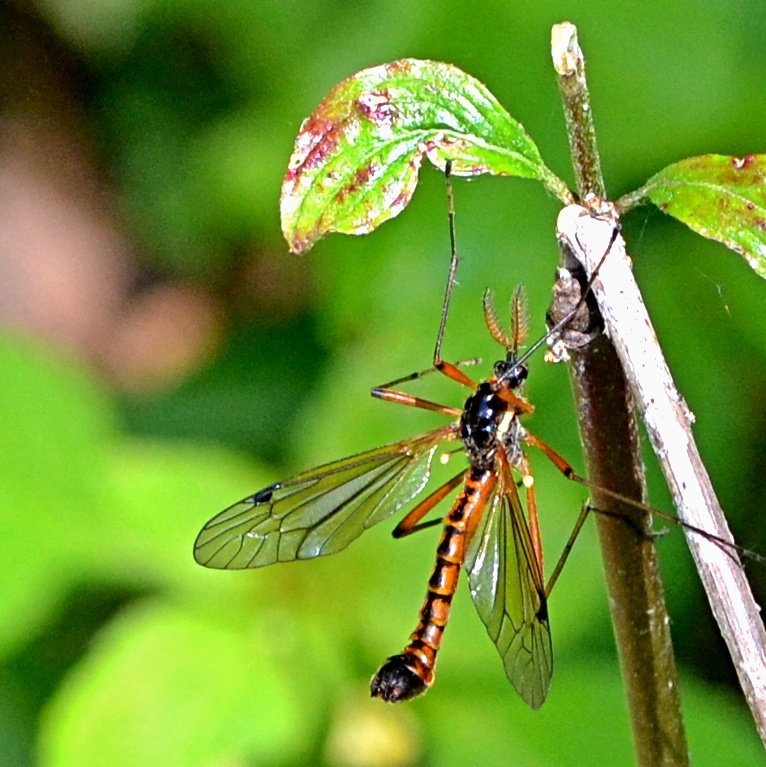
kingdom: Animalia
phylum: Arthropoda
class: Insecta
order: Diptera
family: Tipulidae
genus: Tanyptera
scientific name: Tanyptera atrata
